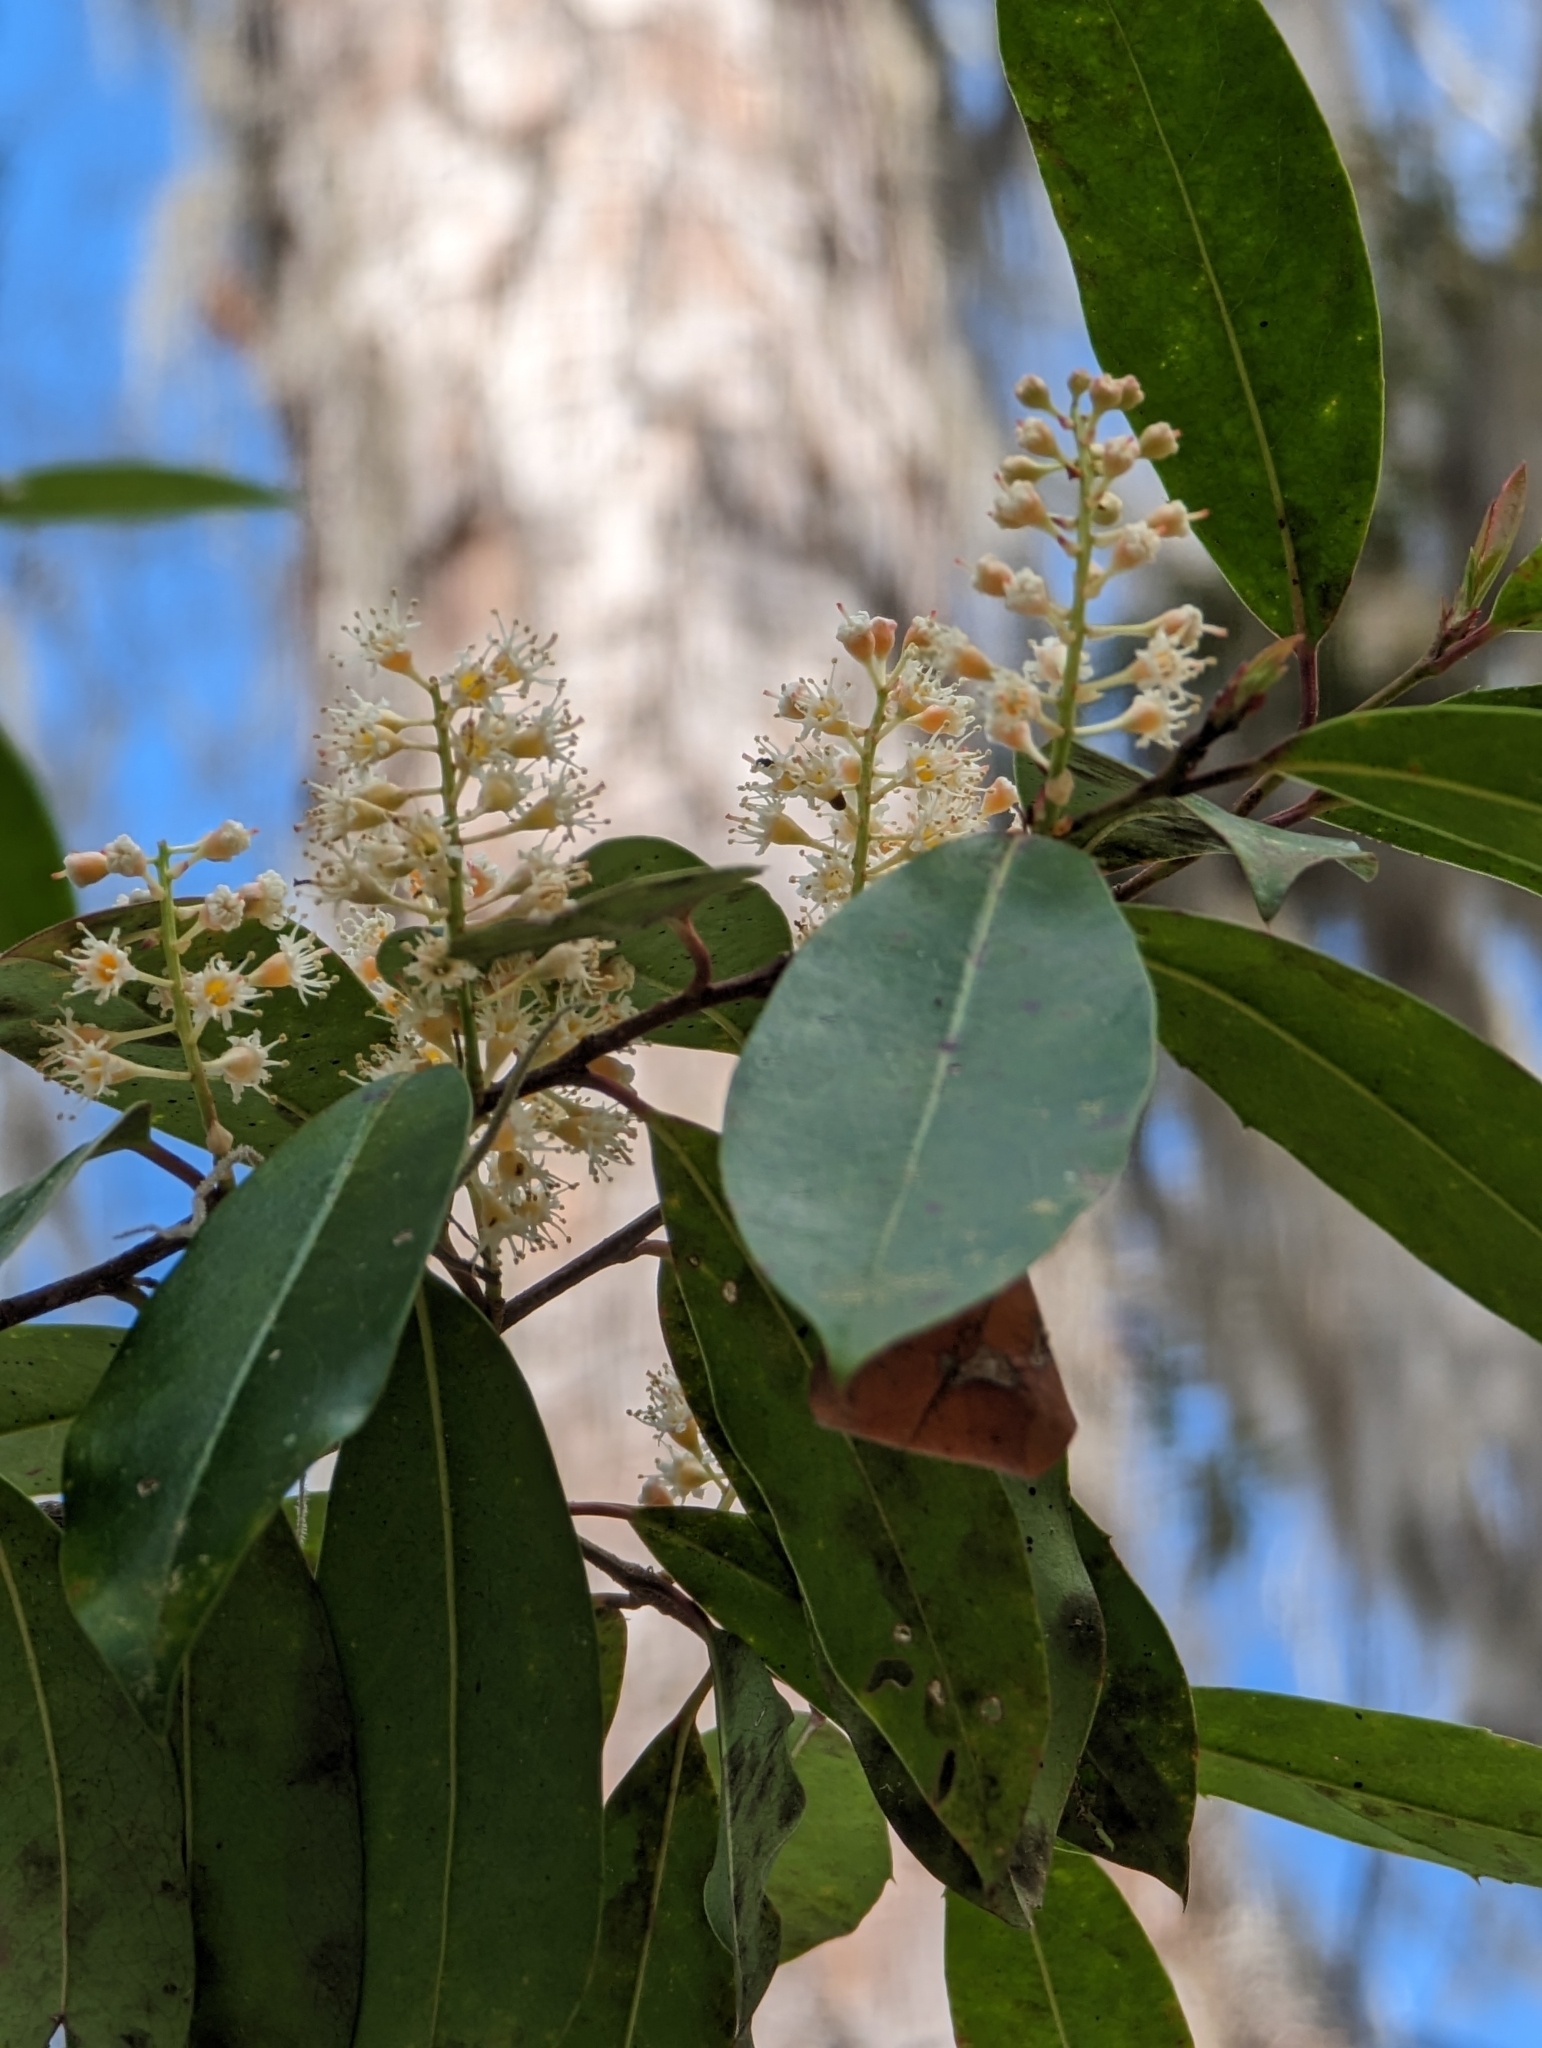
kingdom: Plantae
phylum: Tracheophyta
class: Magnoliopsida
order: Rosales
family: Rosaceae
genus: Prunus
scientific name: Prunus caroliniana
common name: Carolina laurel cherry
